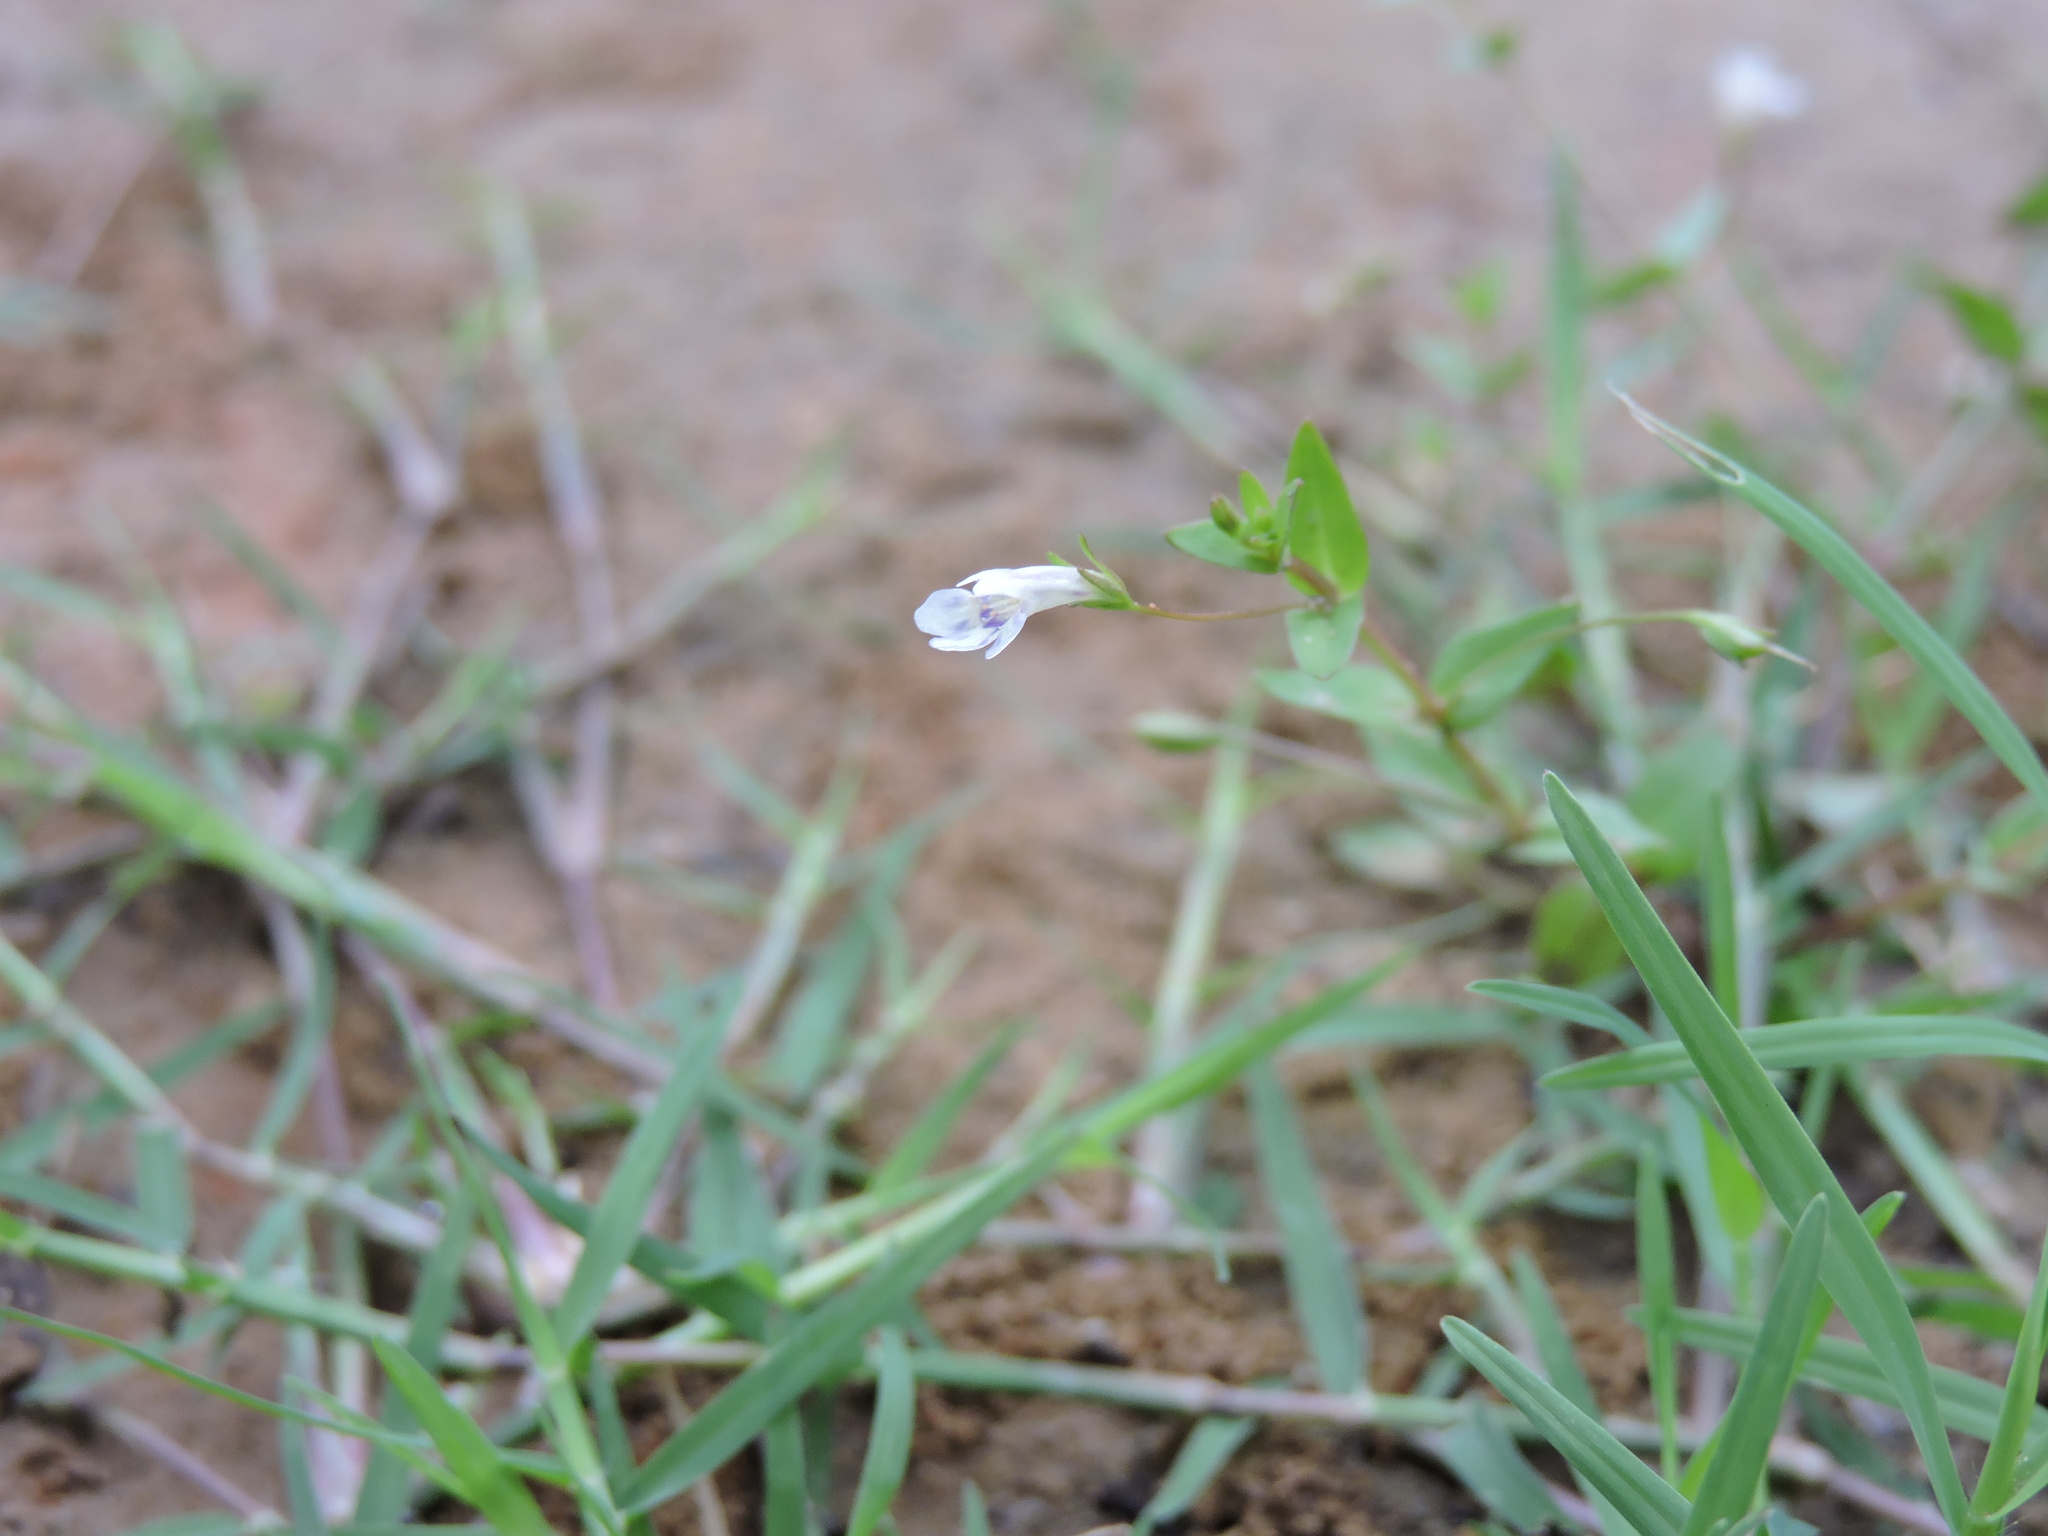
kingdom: Plantae
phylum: Tracheophyta
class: Magnoliopsida
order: Lamiales
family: Linderniaceae
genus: Lindernia
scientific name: Lindernia dubia
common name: Annual false pimpernel
